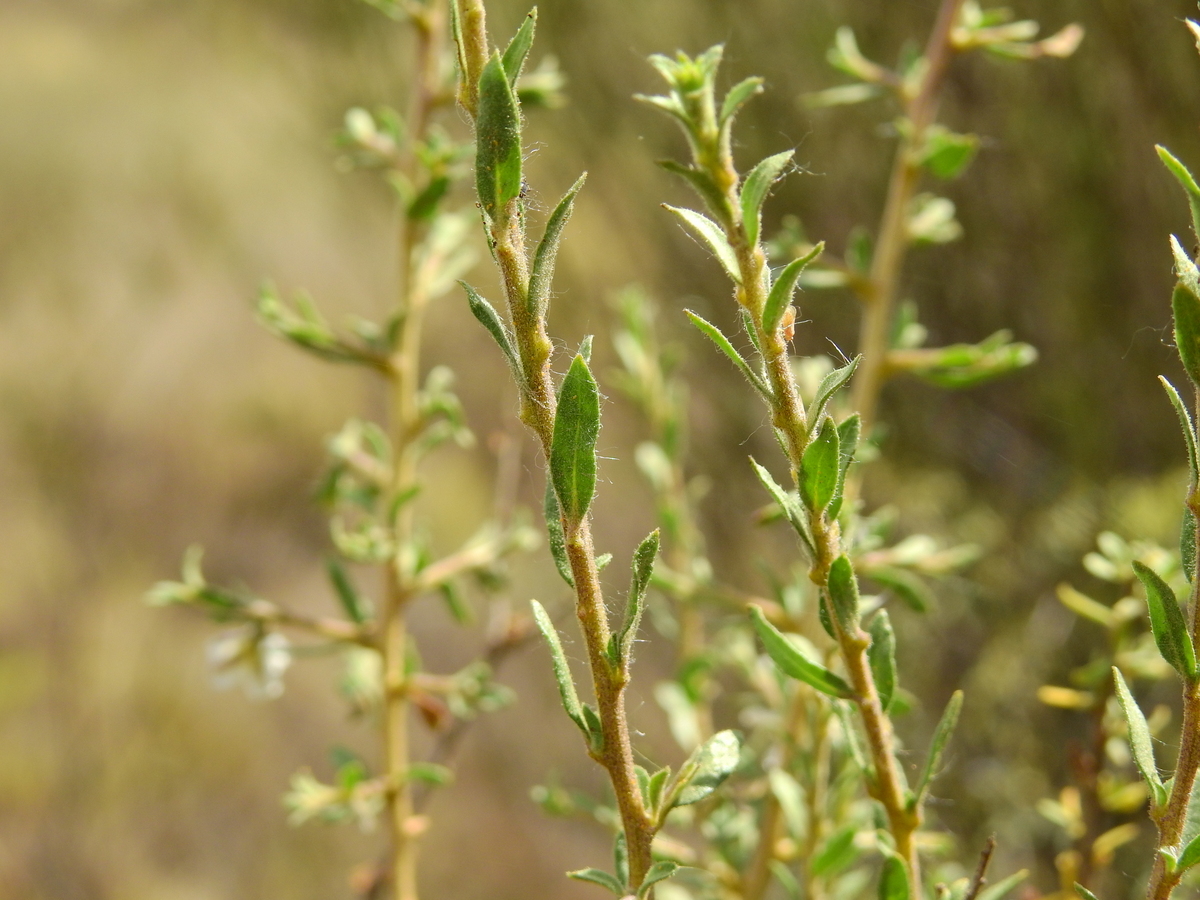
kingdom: Plantae
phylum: Tracheophyta
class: Magnoliopsida
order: Solanales
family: Solanaceae
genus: Lycium
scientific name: Lycium ciliatum
